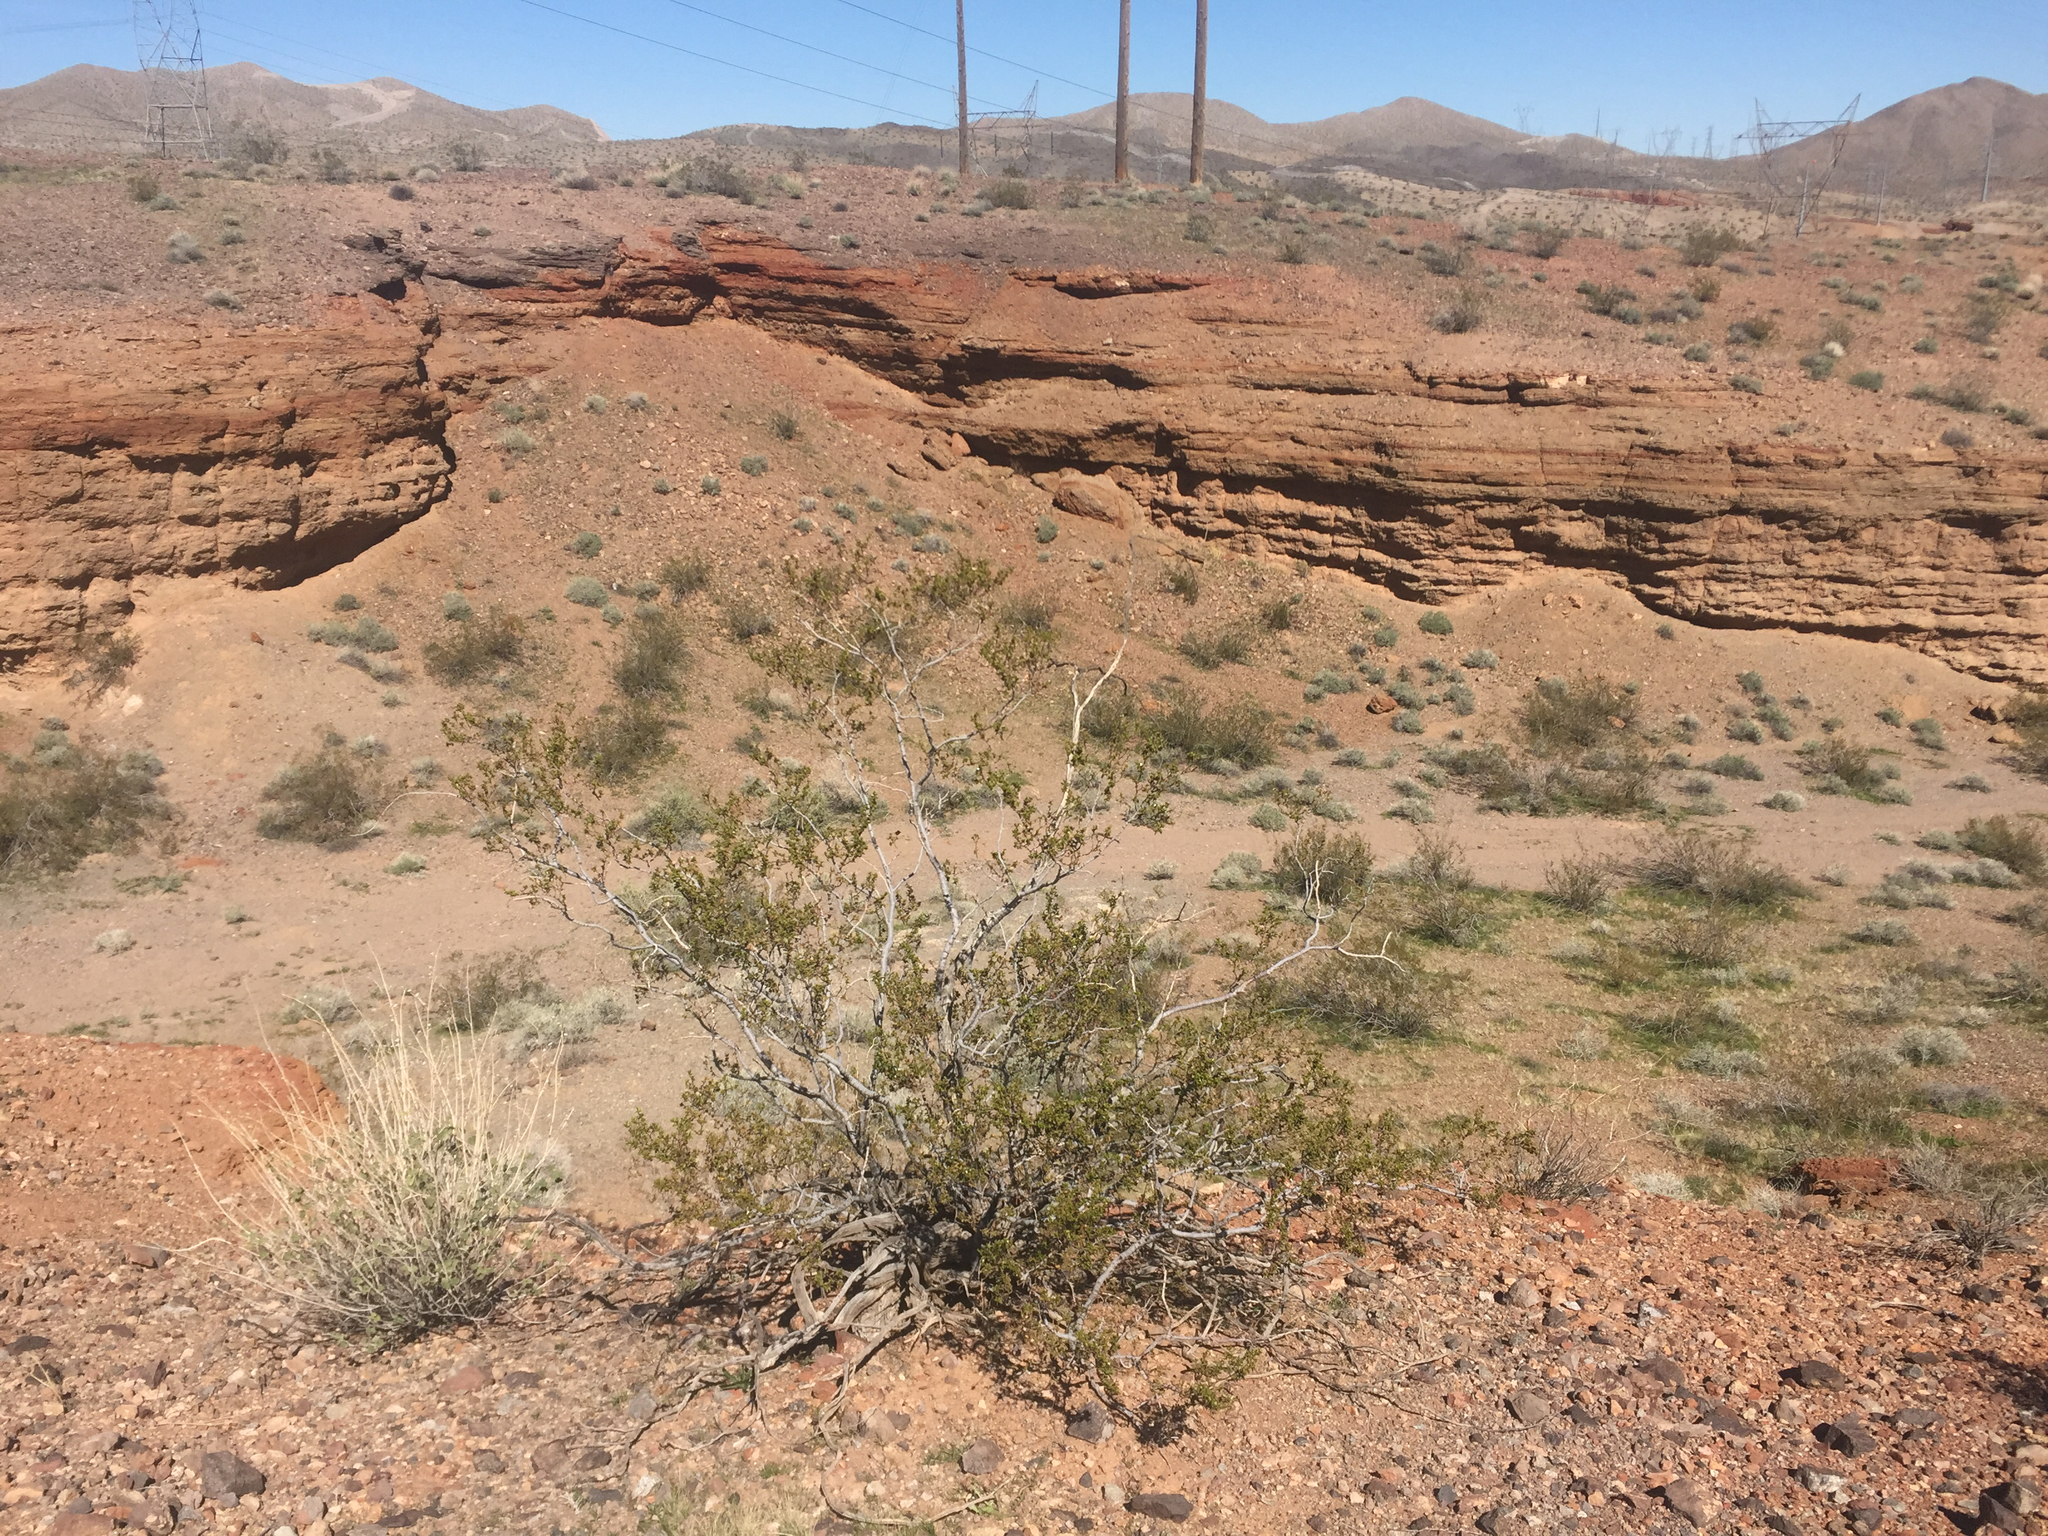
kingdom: Plantae
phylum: Tracheophyta
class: Magnoliopsida
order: Zygophyllales
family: Zygophyllaceae
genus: Larrea
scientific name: Larrea tridentata
